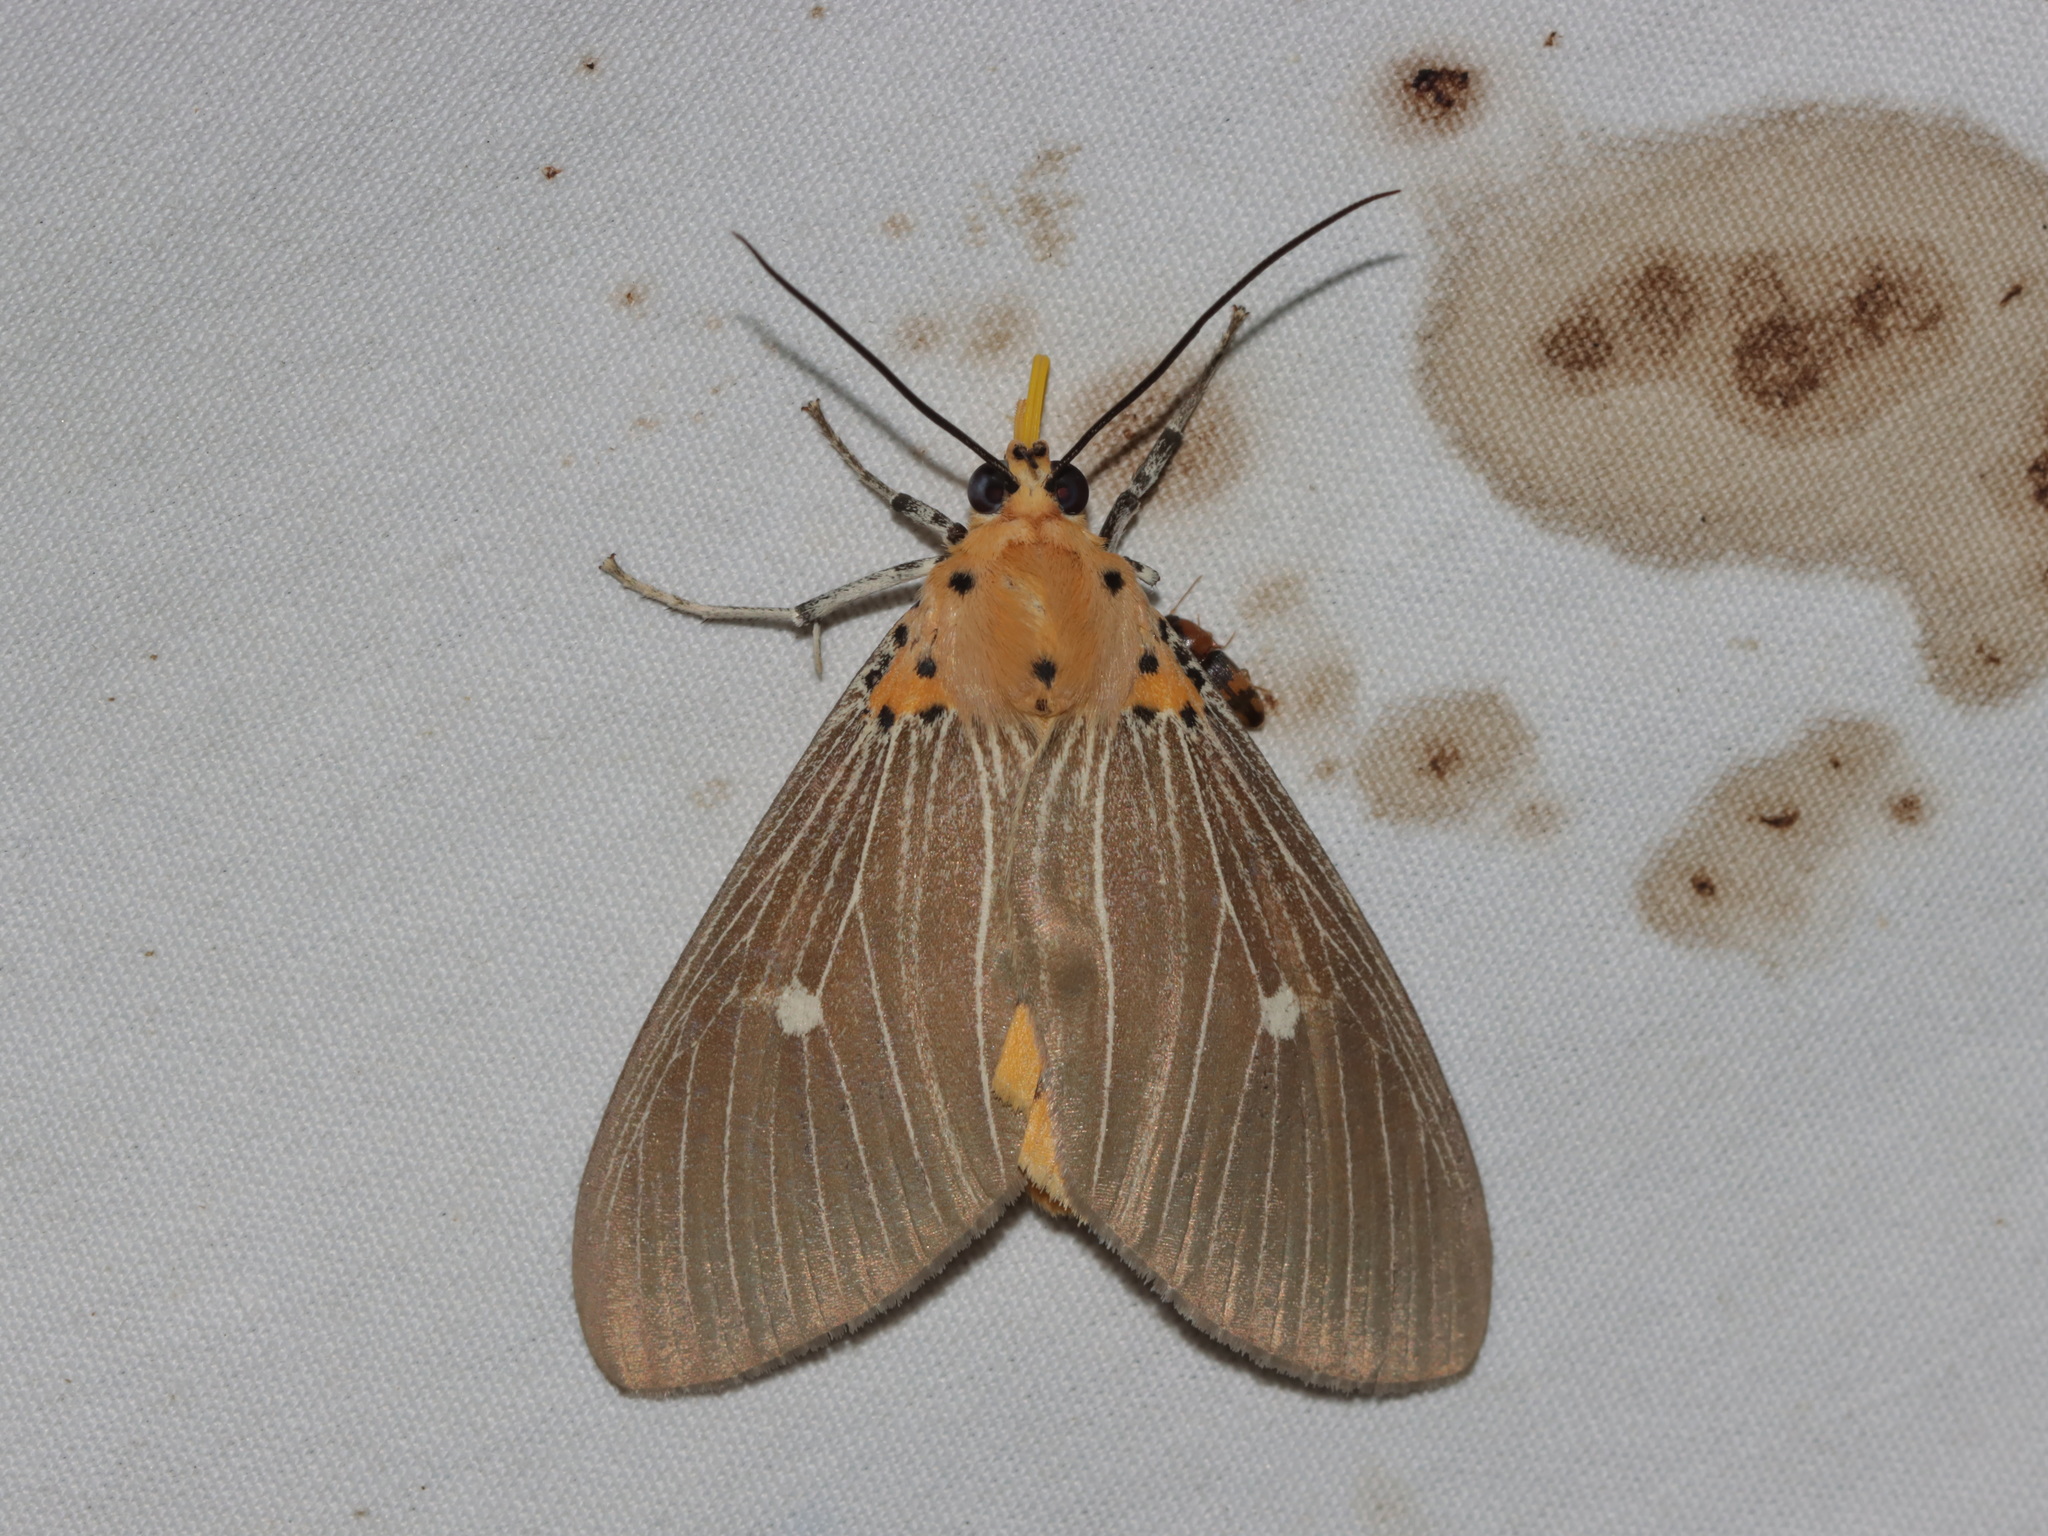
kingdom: Animalia
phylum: Arthropoda
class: Insecta
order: Lepidoptera
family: Erebidae
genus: Asota
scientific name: Asota caricae
